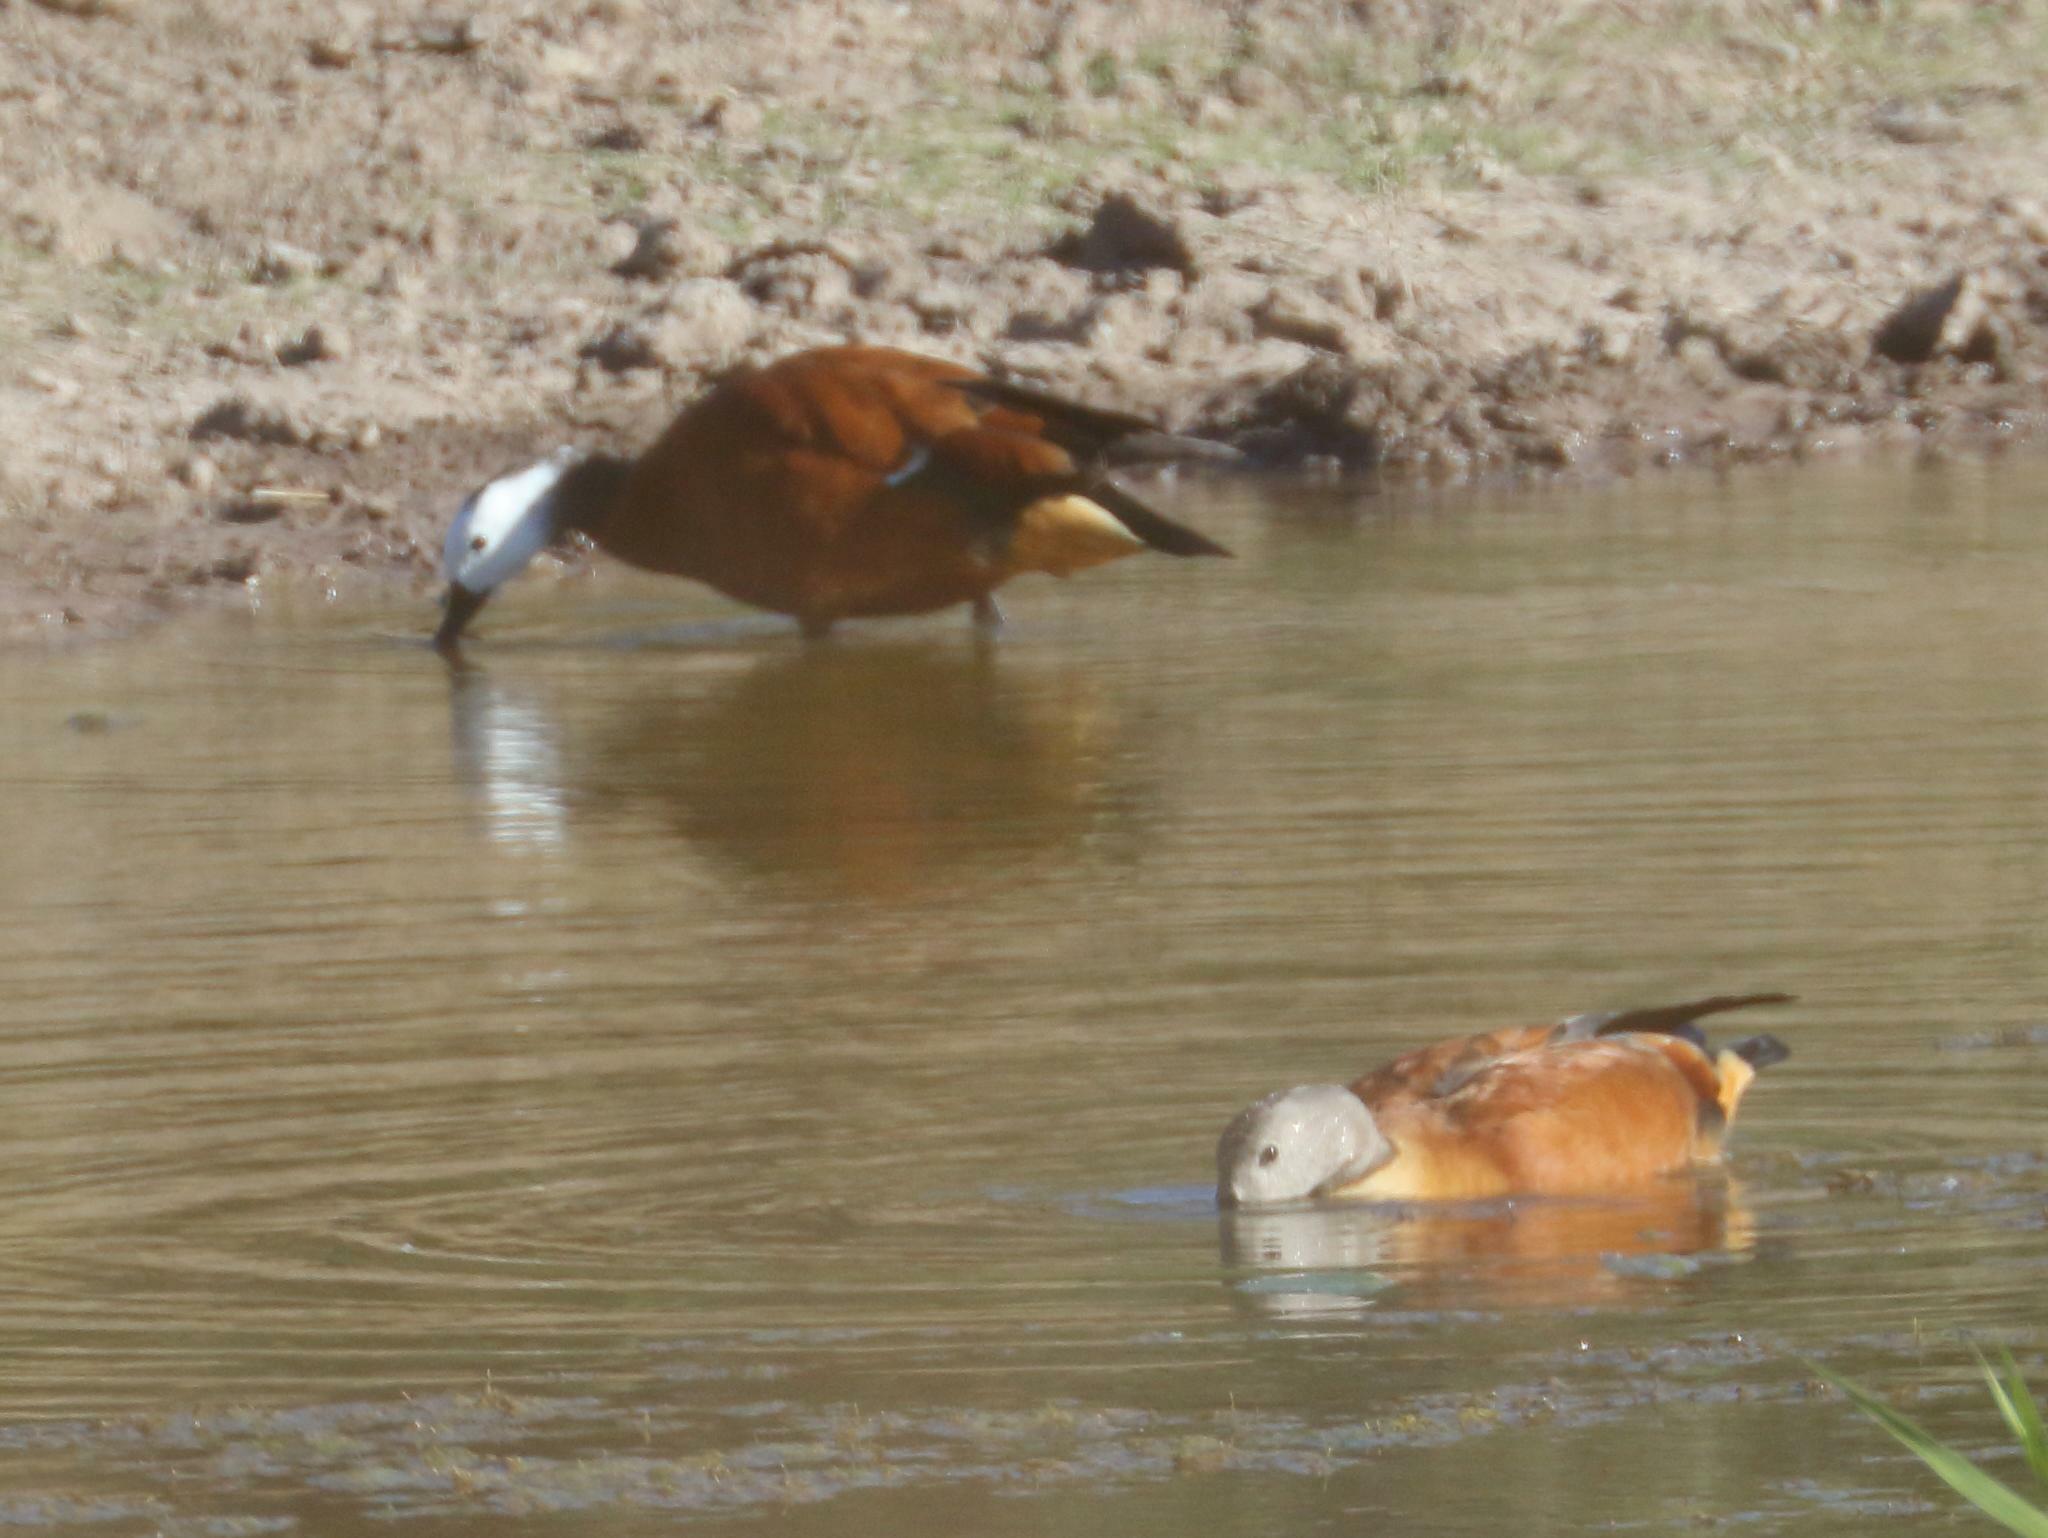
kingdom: Animalia
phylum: Chordata
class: Aves
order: Anseriformes
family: Anatidae
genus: Tadorna
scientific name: Tadorna cana
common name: South african shelduck
